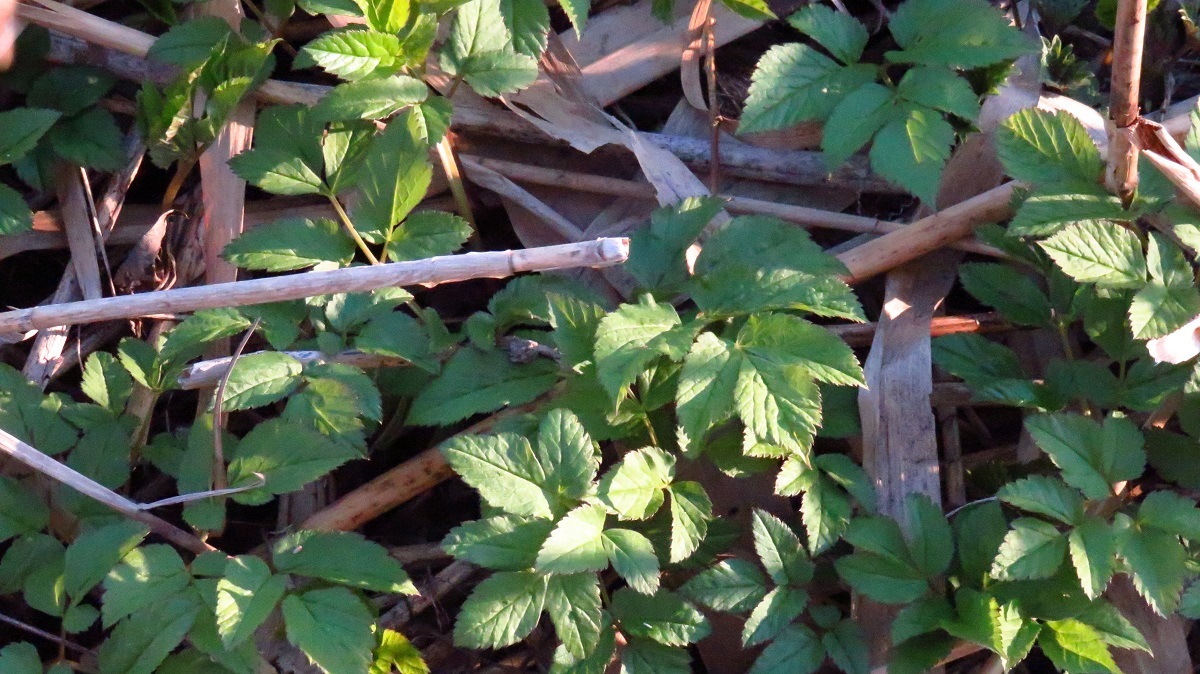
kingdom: Plantae
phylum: Tracheophyta
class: Magnoliopsida
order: Apiales
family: Apiaceae
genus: Aegopodium
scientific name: Aegopodium podagraria
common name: Ground-elder
